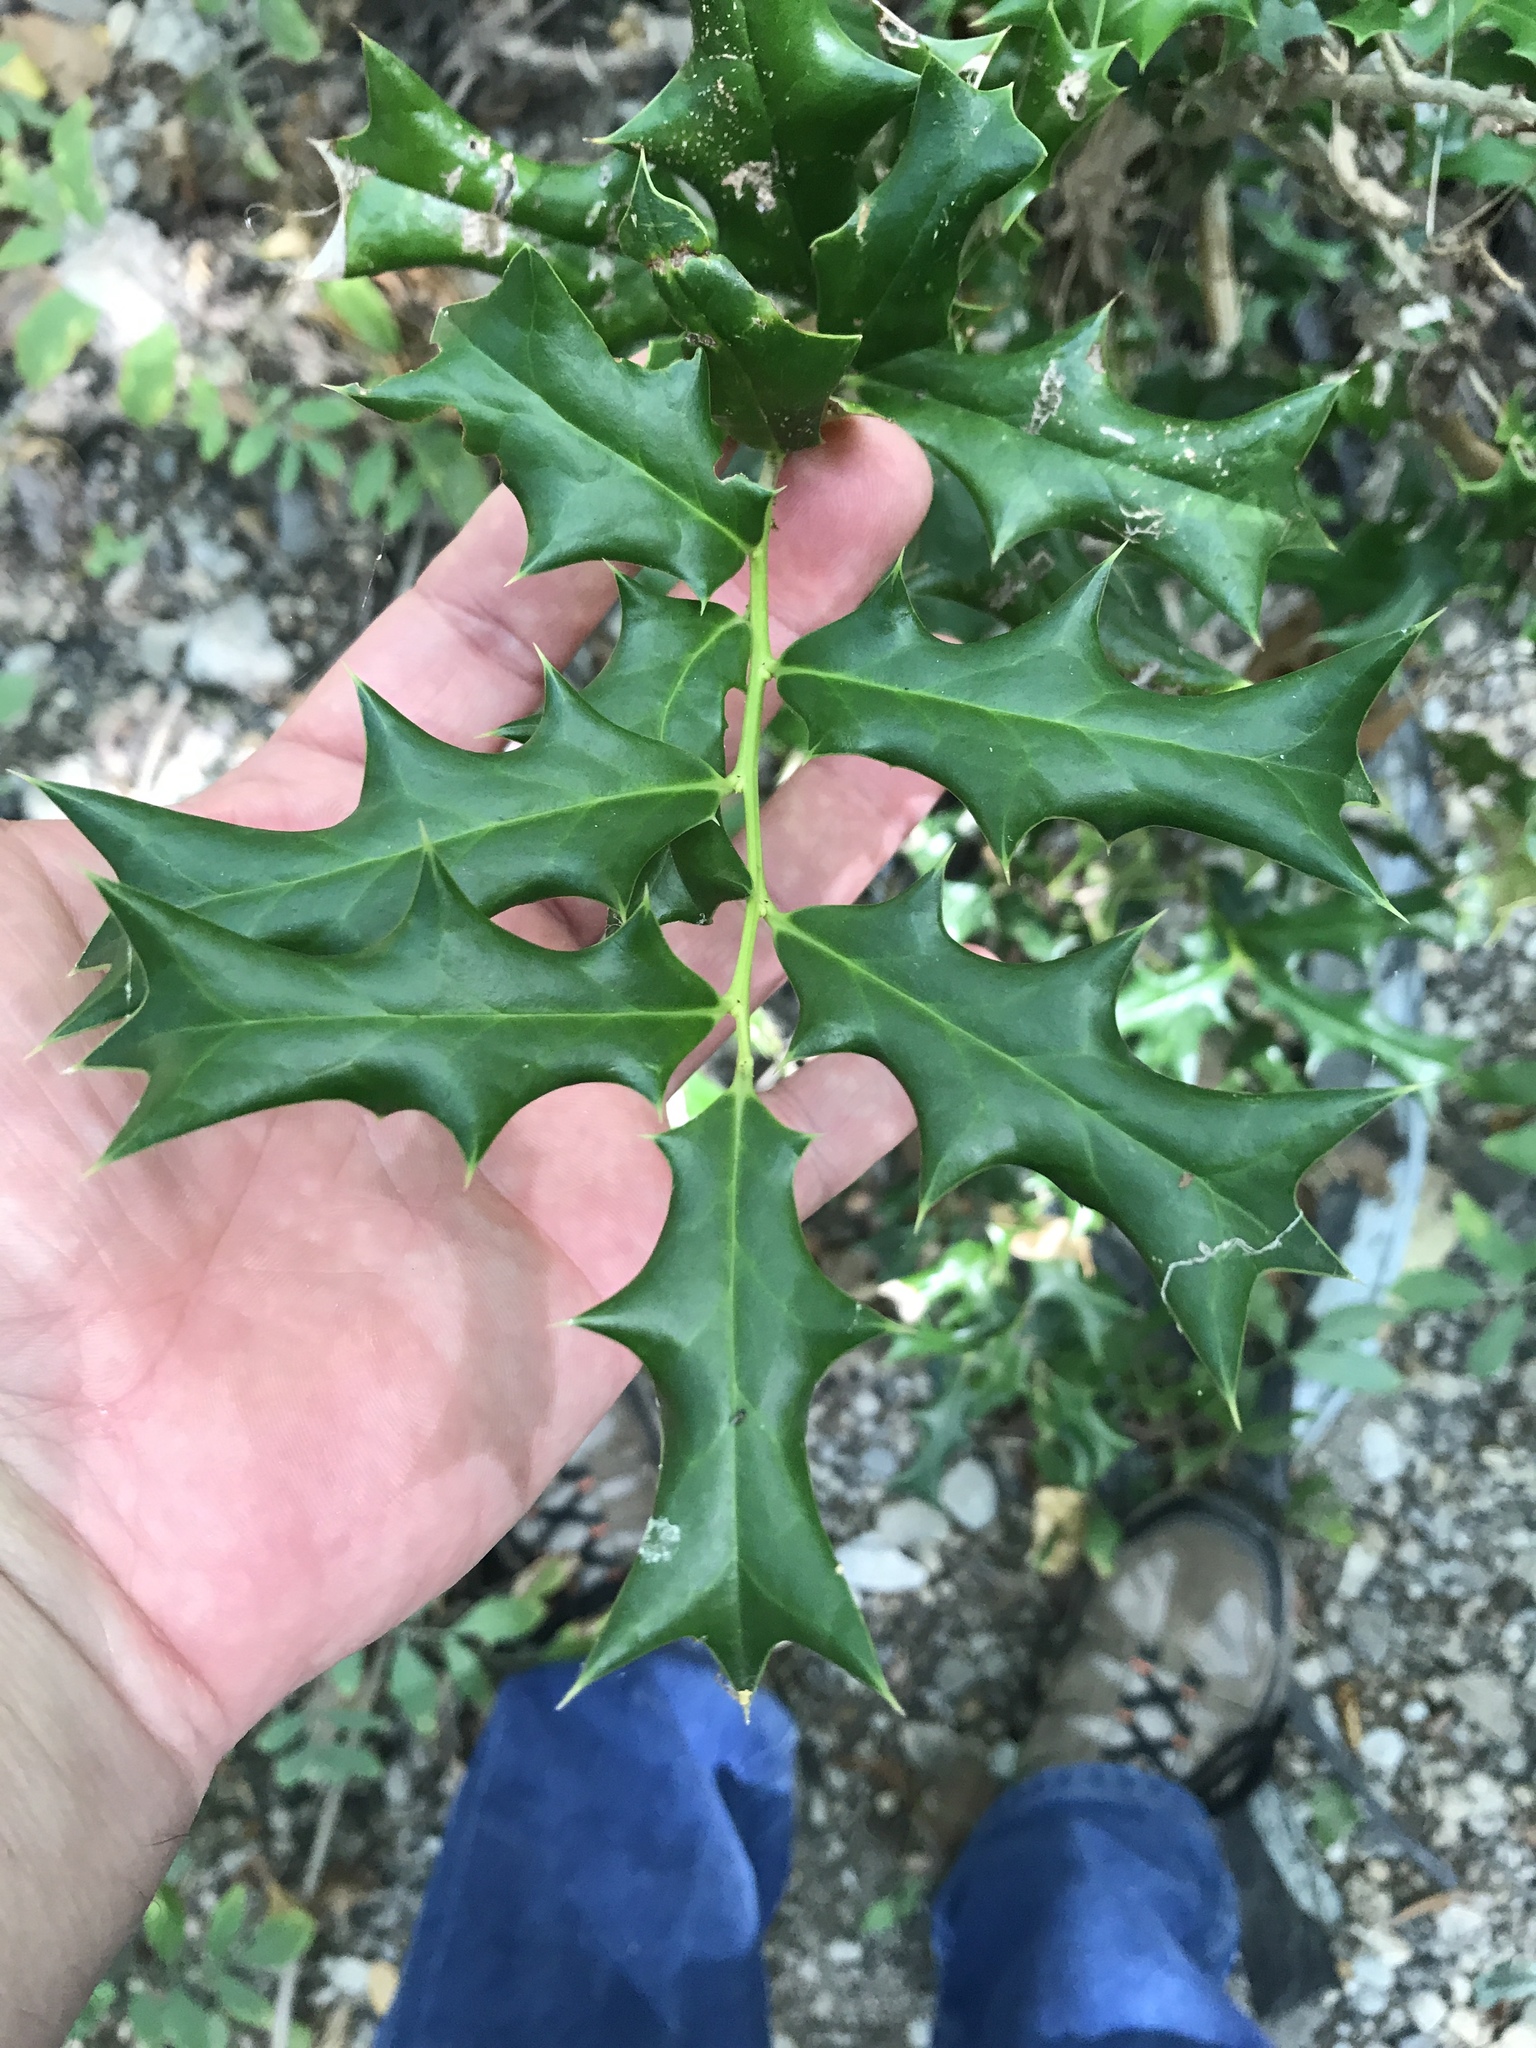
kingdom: Plantae
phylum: Tracheophyta
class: Magnoliopsida
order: Aquifoliales
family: Aquifoliaceae
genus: Ilex
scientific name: Ilex cornuta
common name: Chinese holly
